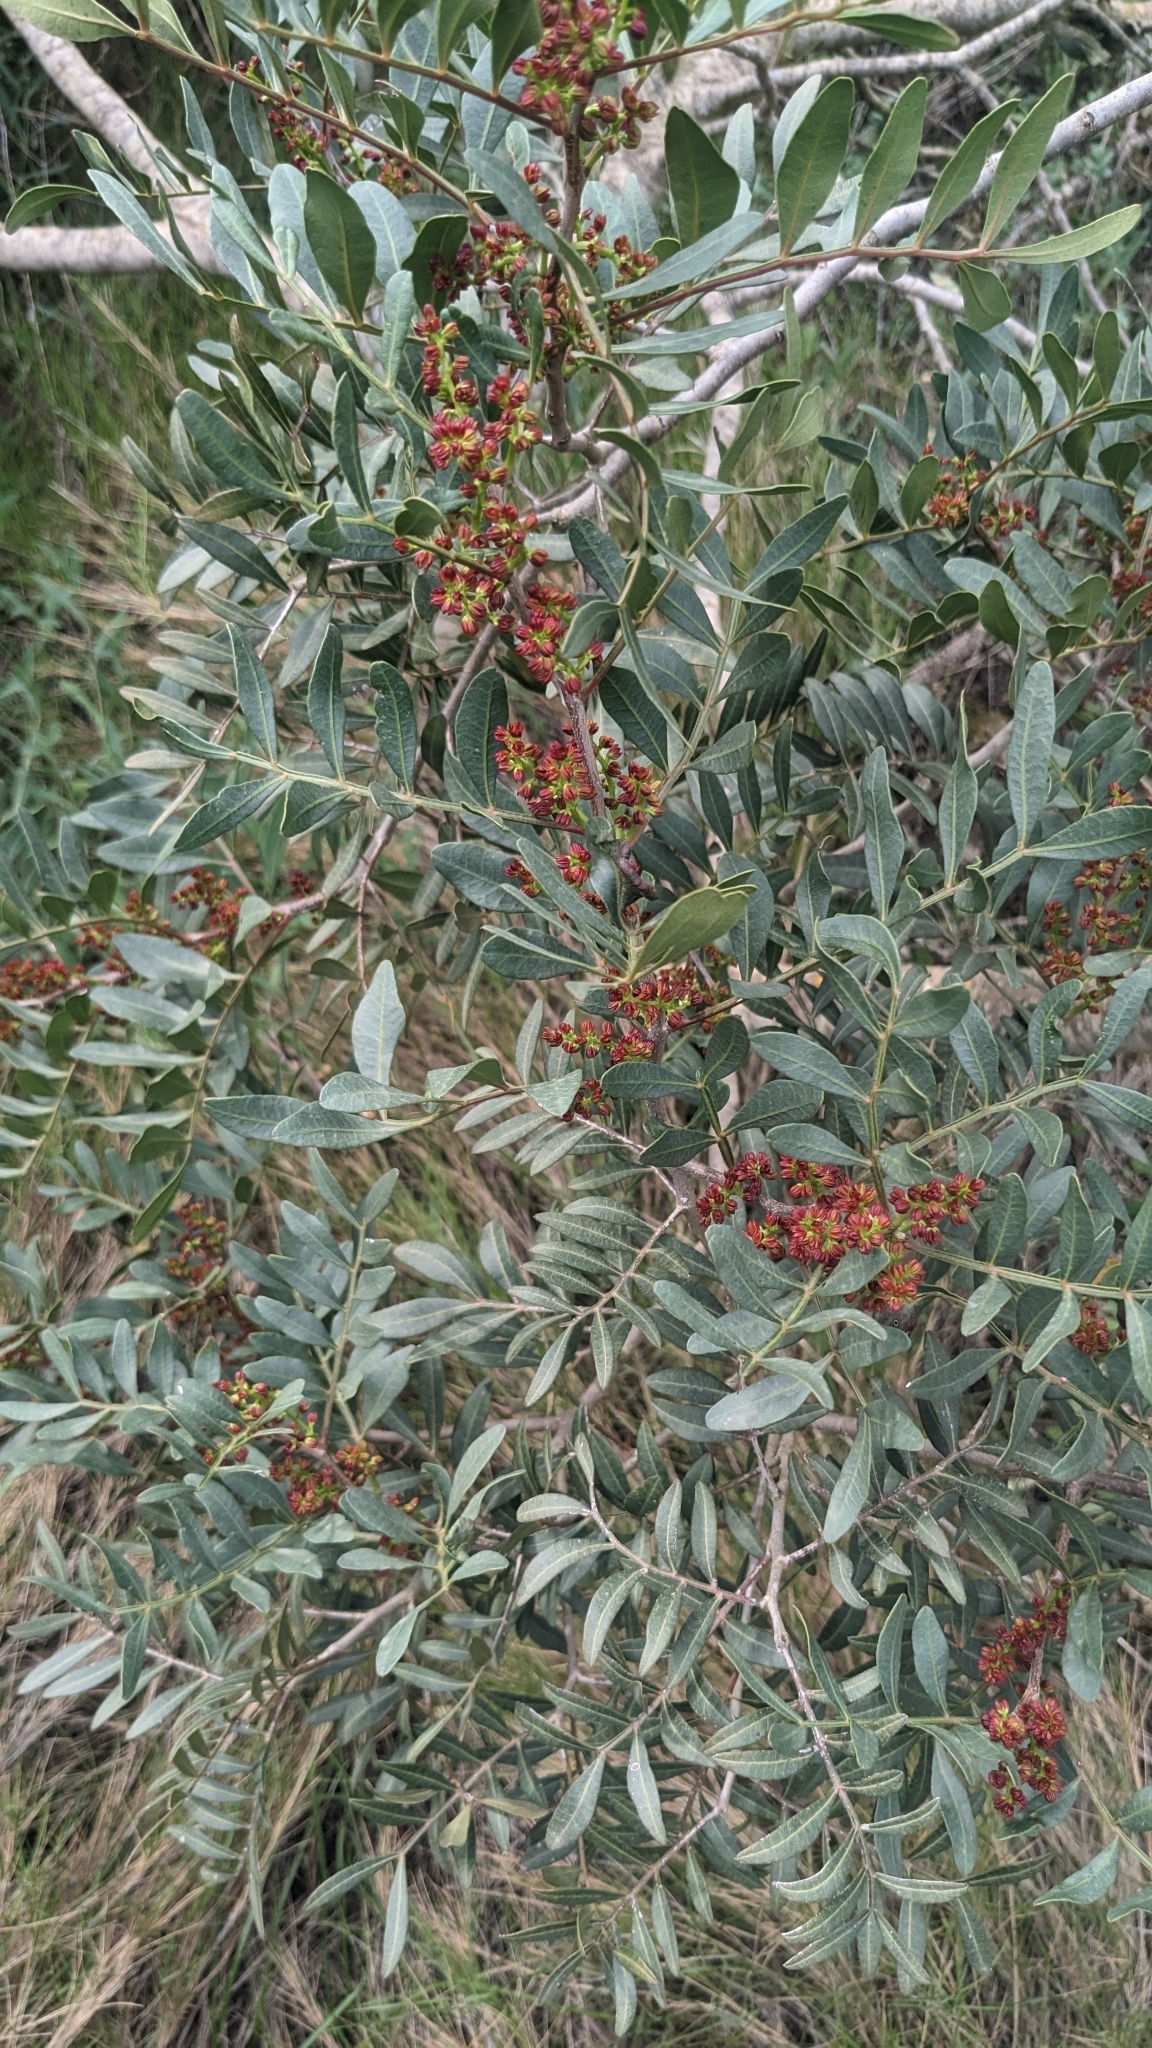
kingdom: Plantae
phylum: Tracheophyta
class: Magnoliopsida
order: Sapindales
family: Anacardiaceae
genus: Pistacia
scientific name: Pistacia lentiscus
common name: Lentisk
